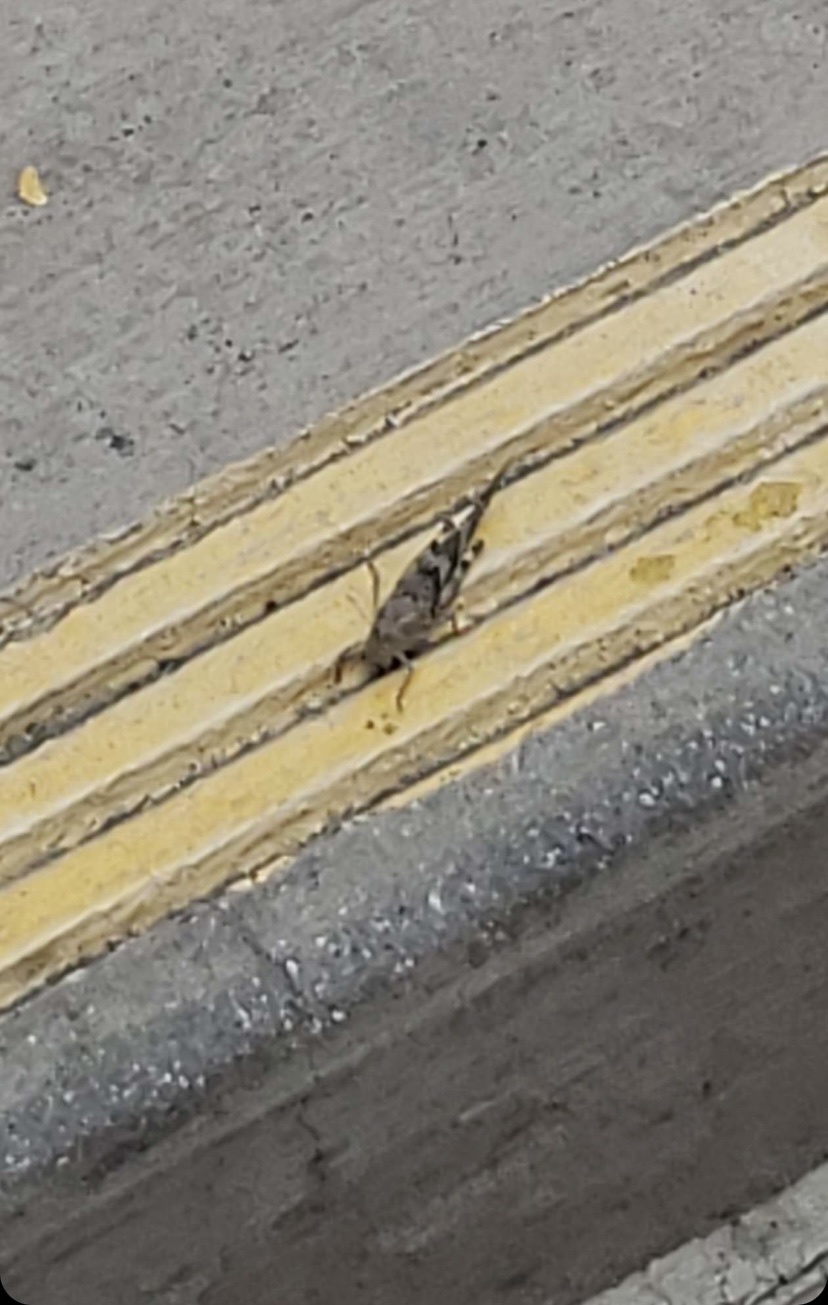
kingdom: Animalia
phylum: Arthropoda
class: Insecta
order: Orthoptera
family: Acrididae
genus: Trimerotropis
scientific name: Trimerotropis pallidipennis
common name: Pallid-winged grasshopper
